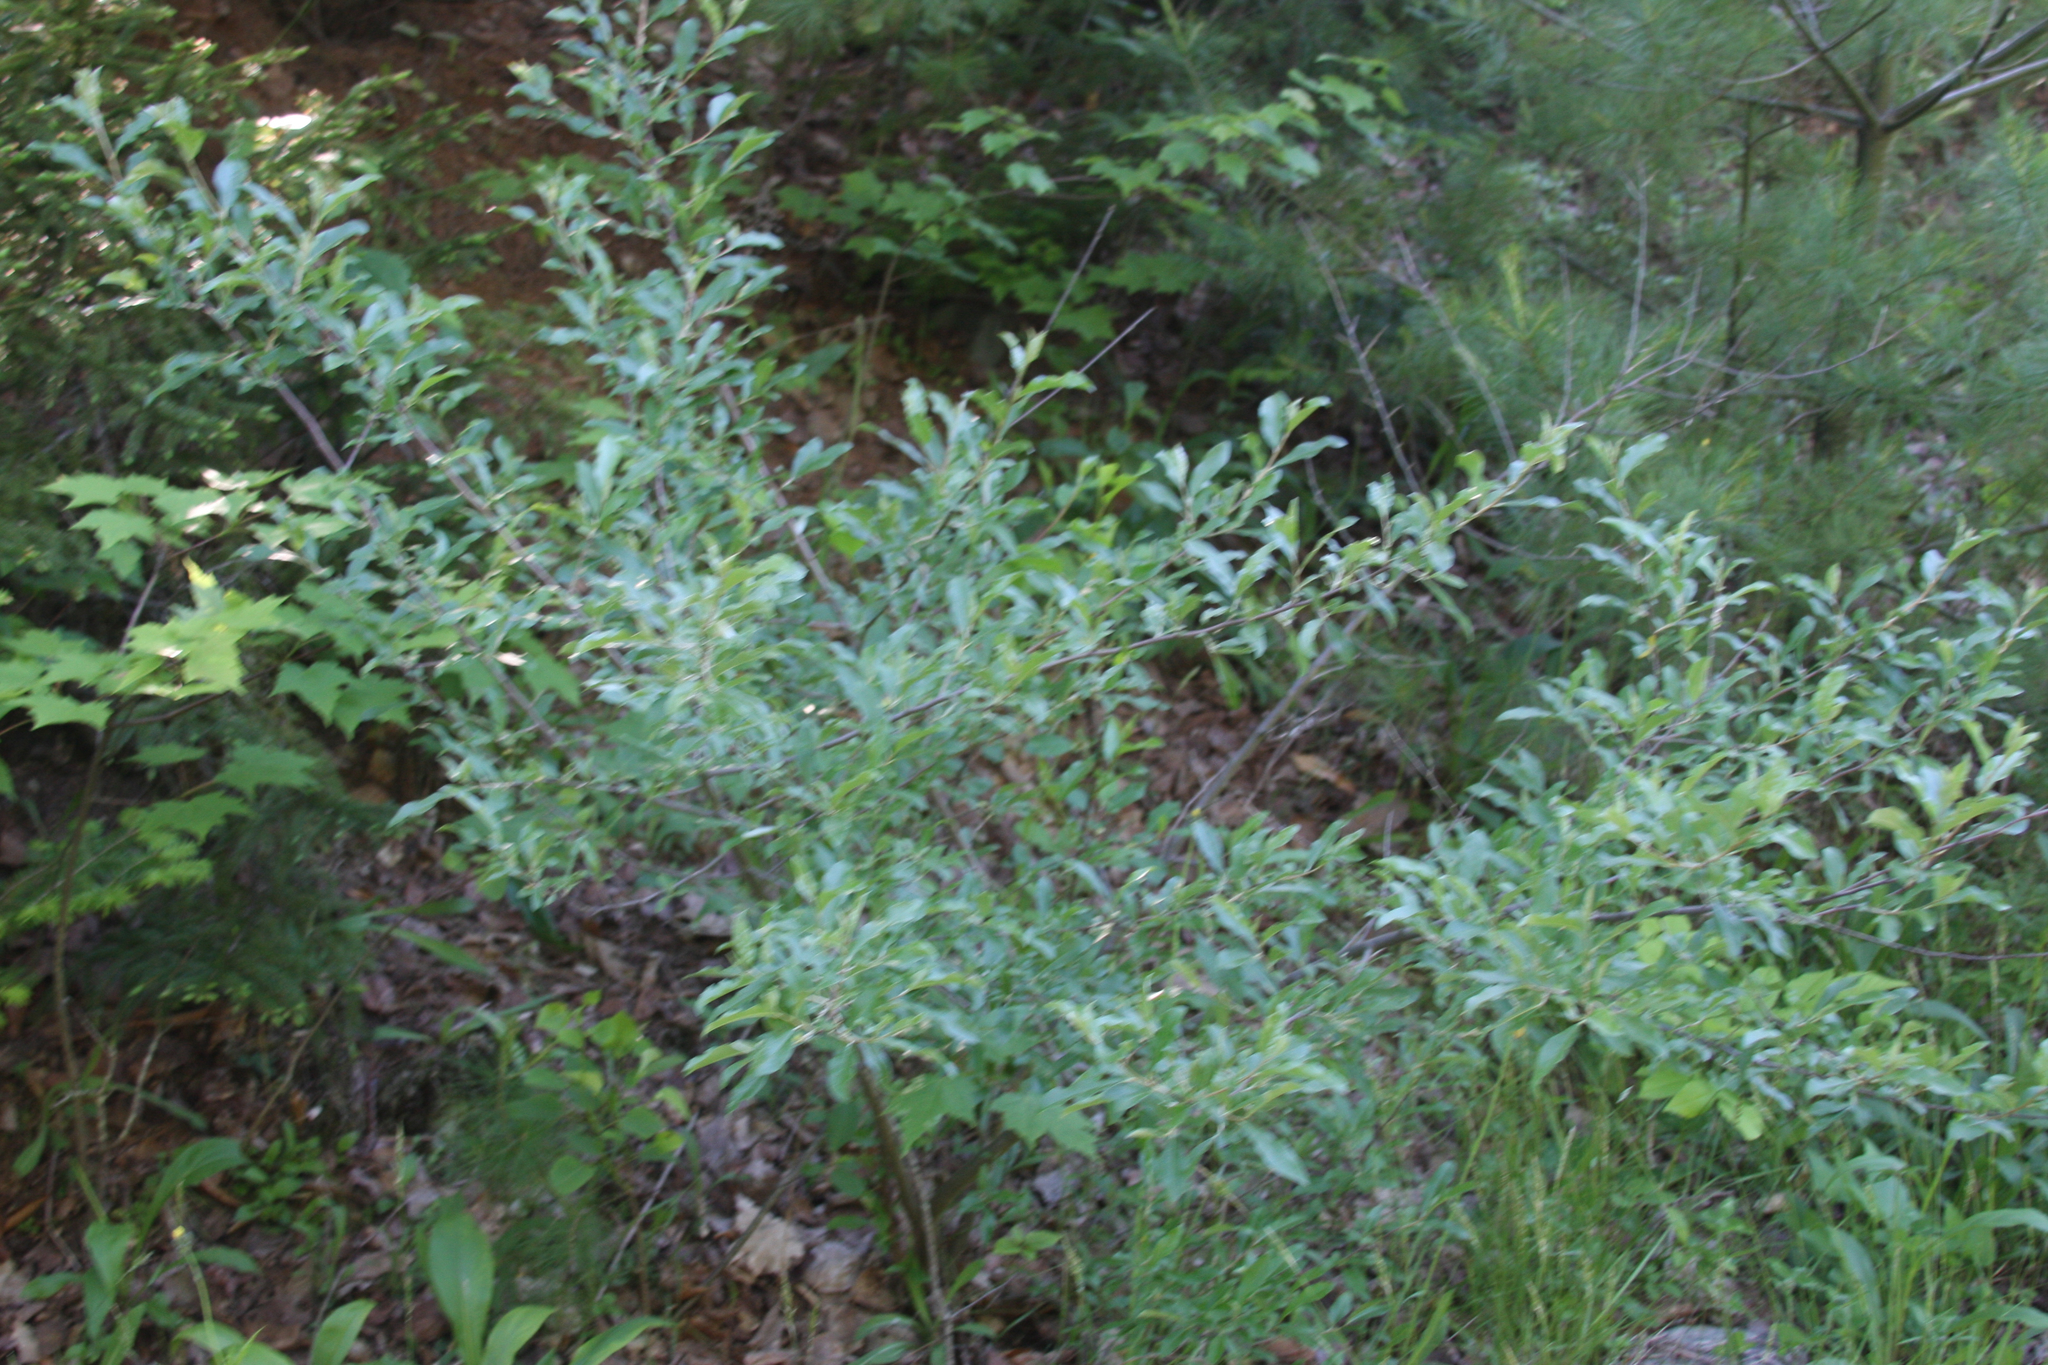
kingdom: Plantae
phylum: Tracheophyta
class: Magnoliopsida
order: Rosales
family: Elaeagnaceae
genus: Elaeagnus
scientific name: Elaeagnus umbellata
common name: Autumn olive
